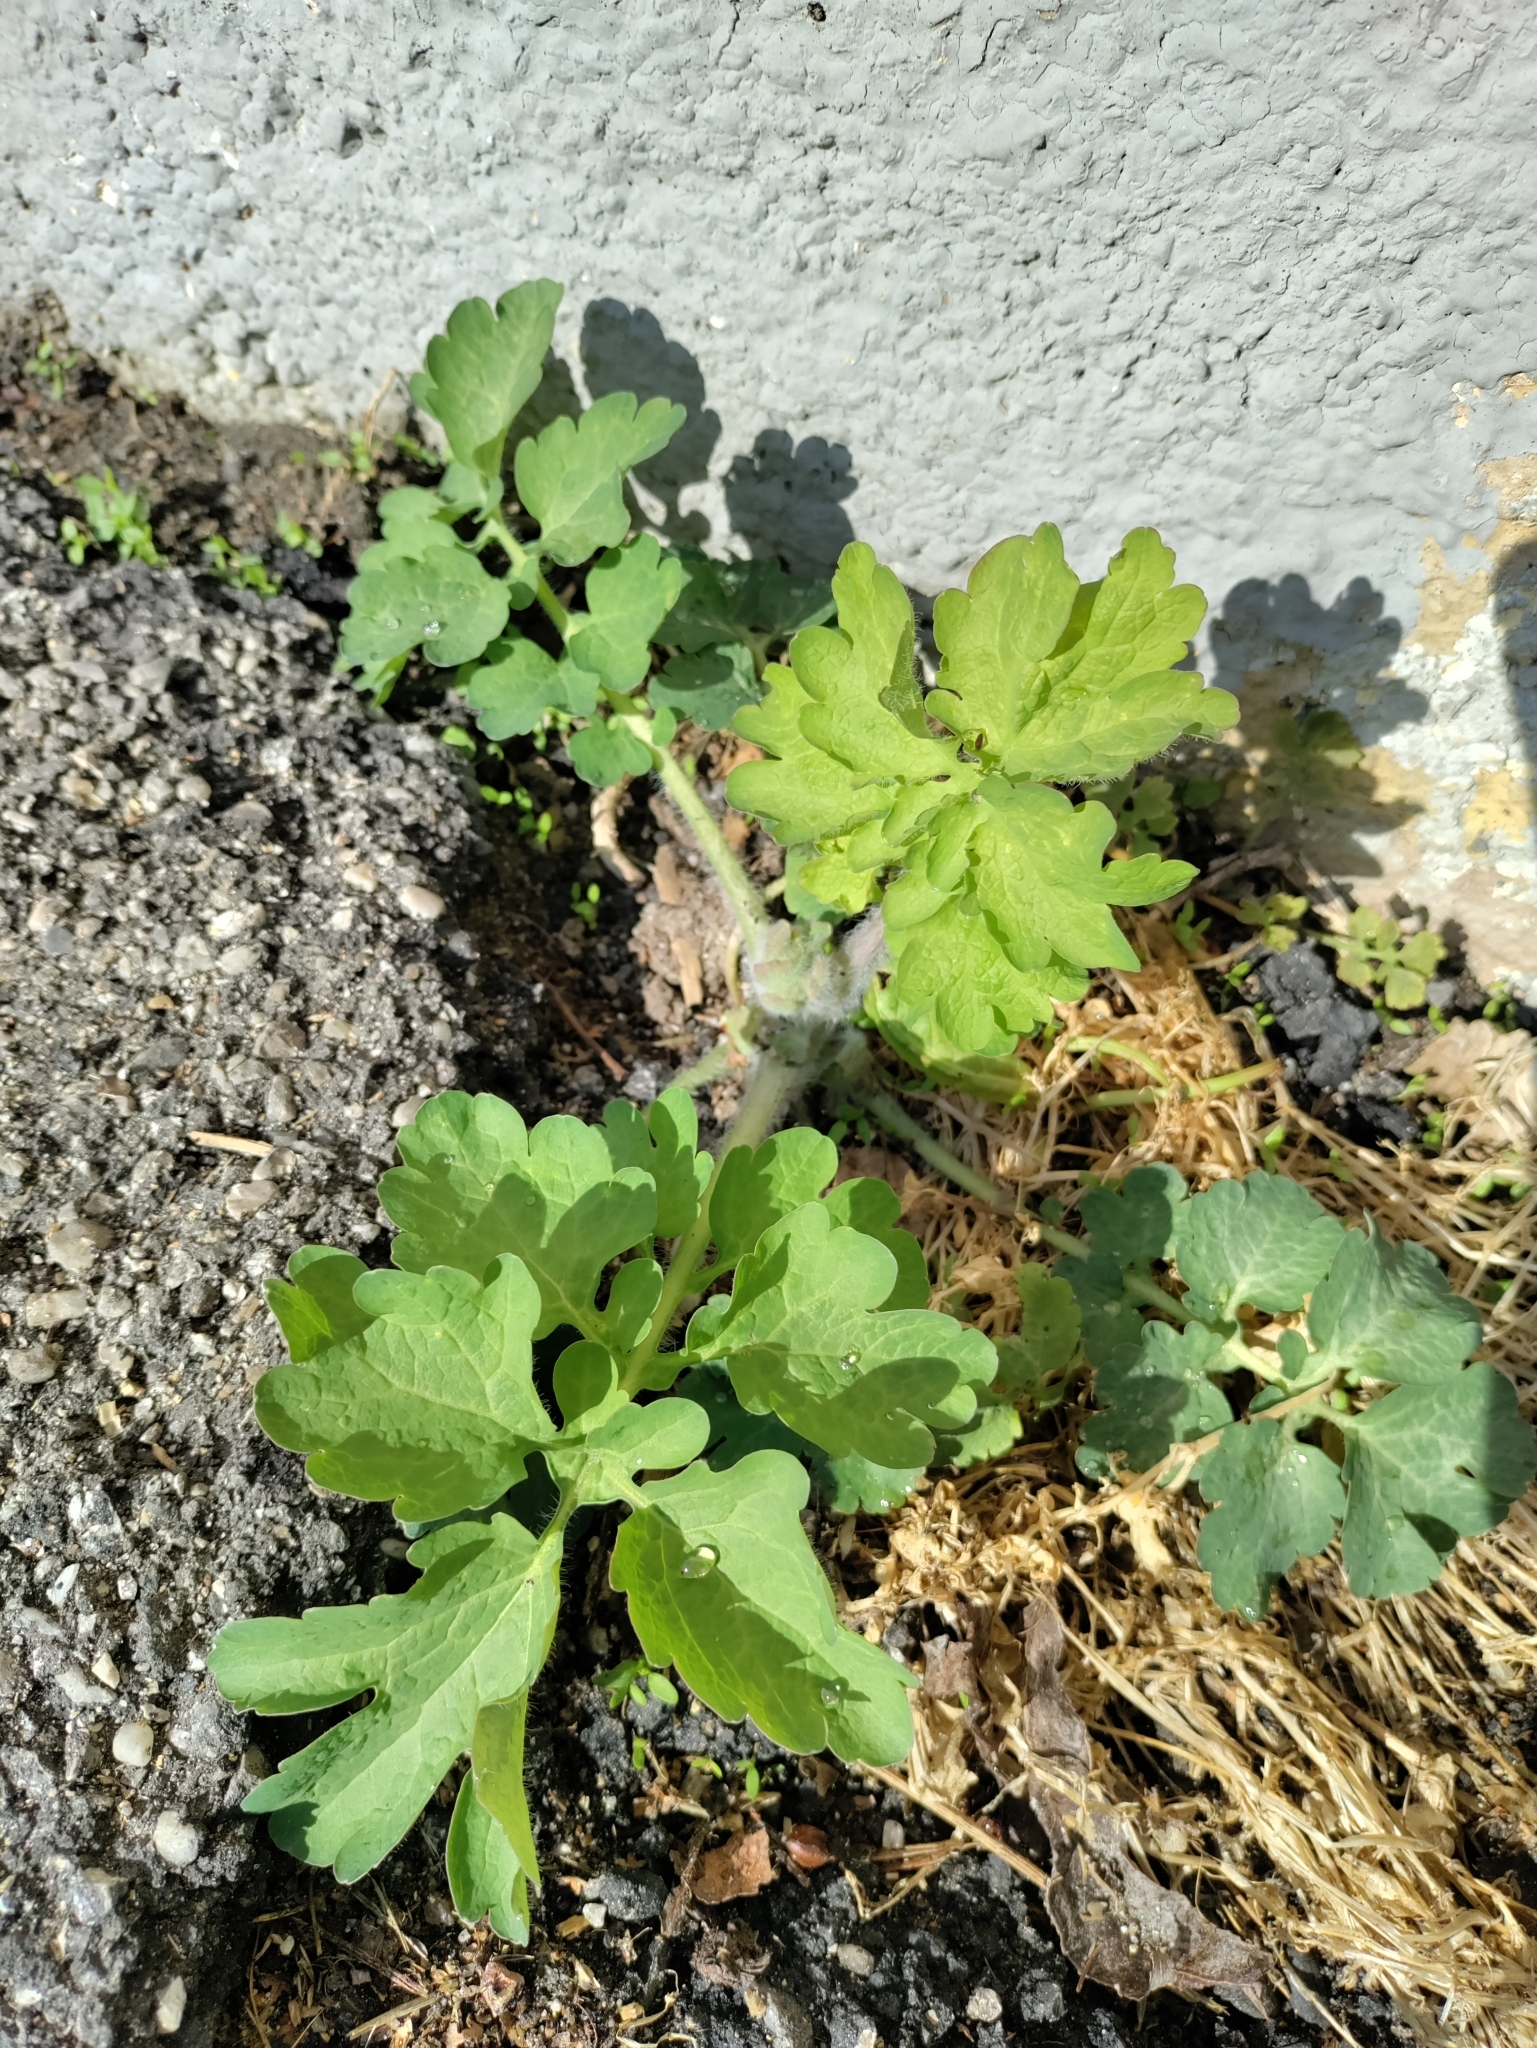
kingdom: Plantae
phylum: Tracheophyta
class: Magnoliopsida
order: Ranunculales
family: Papaveraceae
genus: Chelidonium
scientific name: Chelidonium majus
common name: Greater celandine
